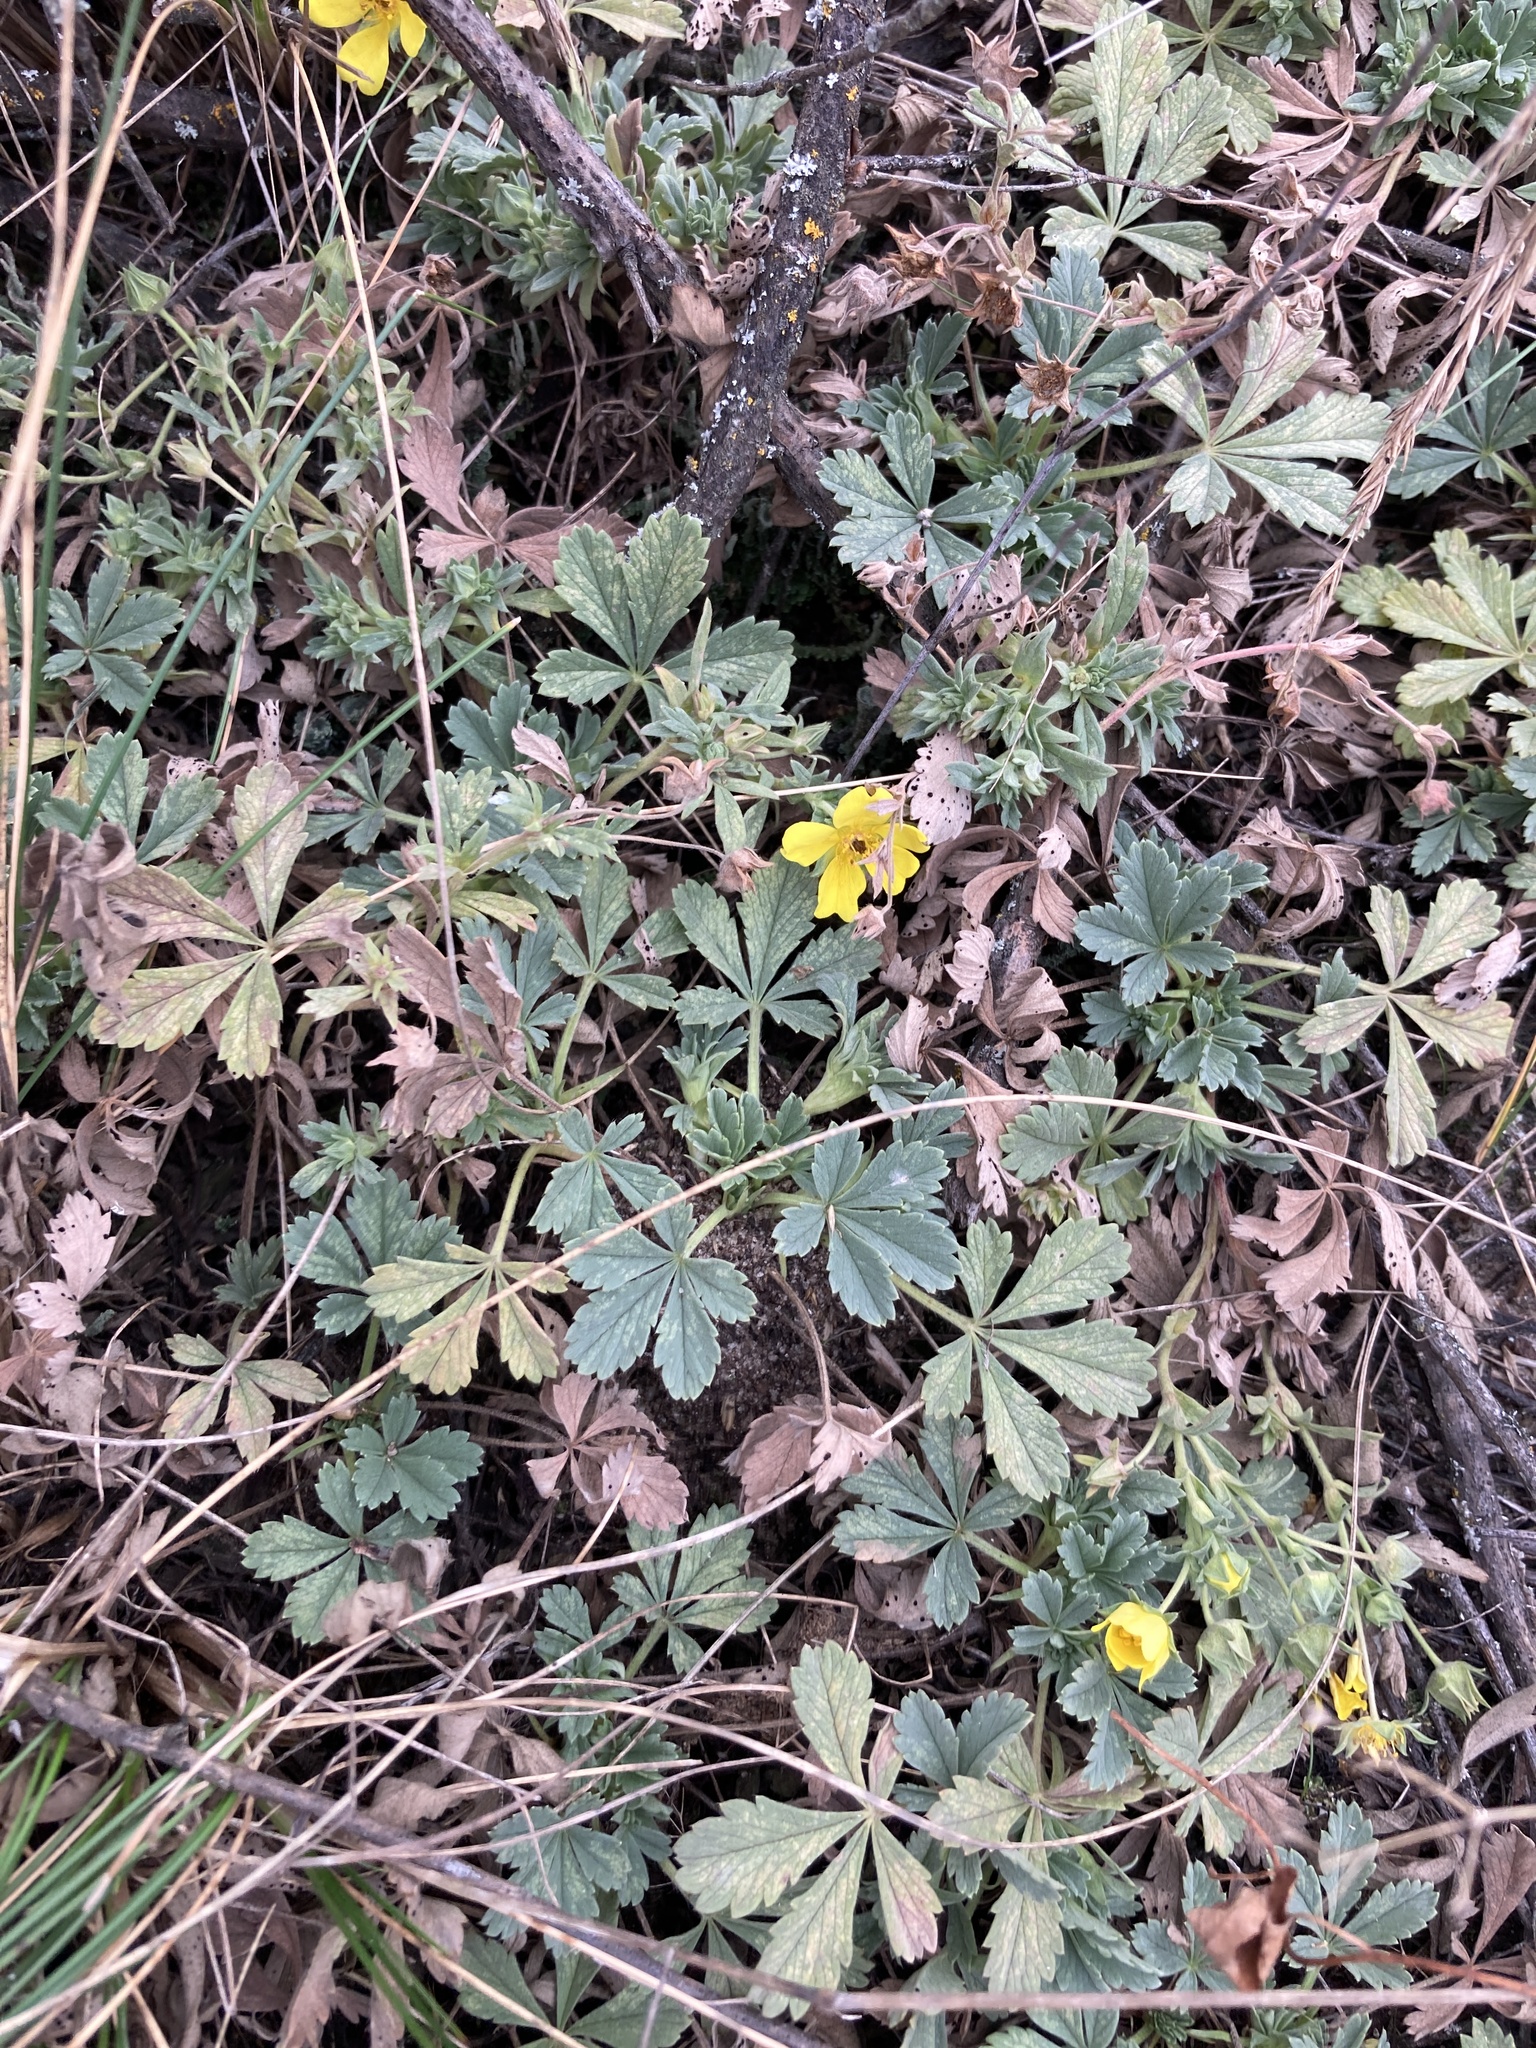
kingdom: Plantae
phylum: Tracheophyta
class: Magnoliopsida
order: Rosales
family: Rosaceae
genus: Potentilla
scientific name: Potentilla incana
